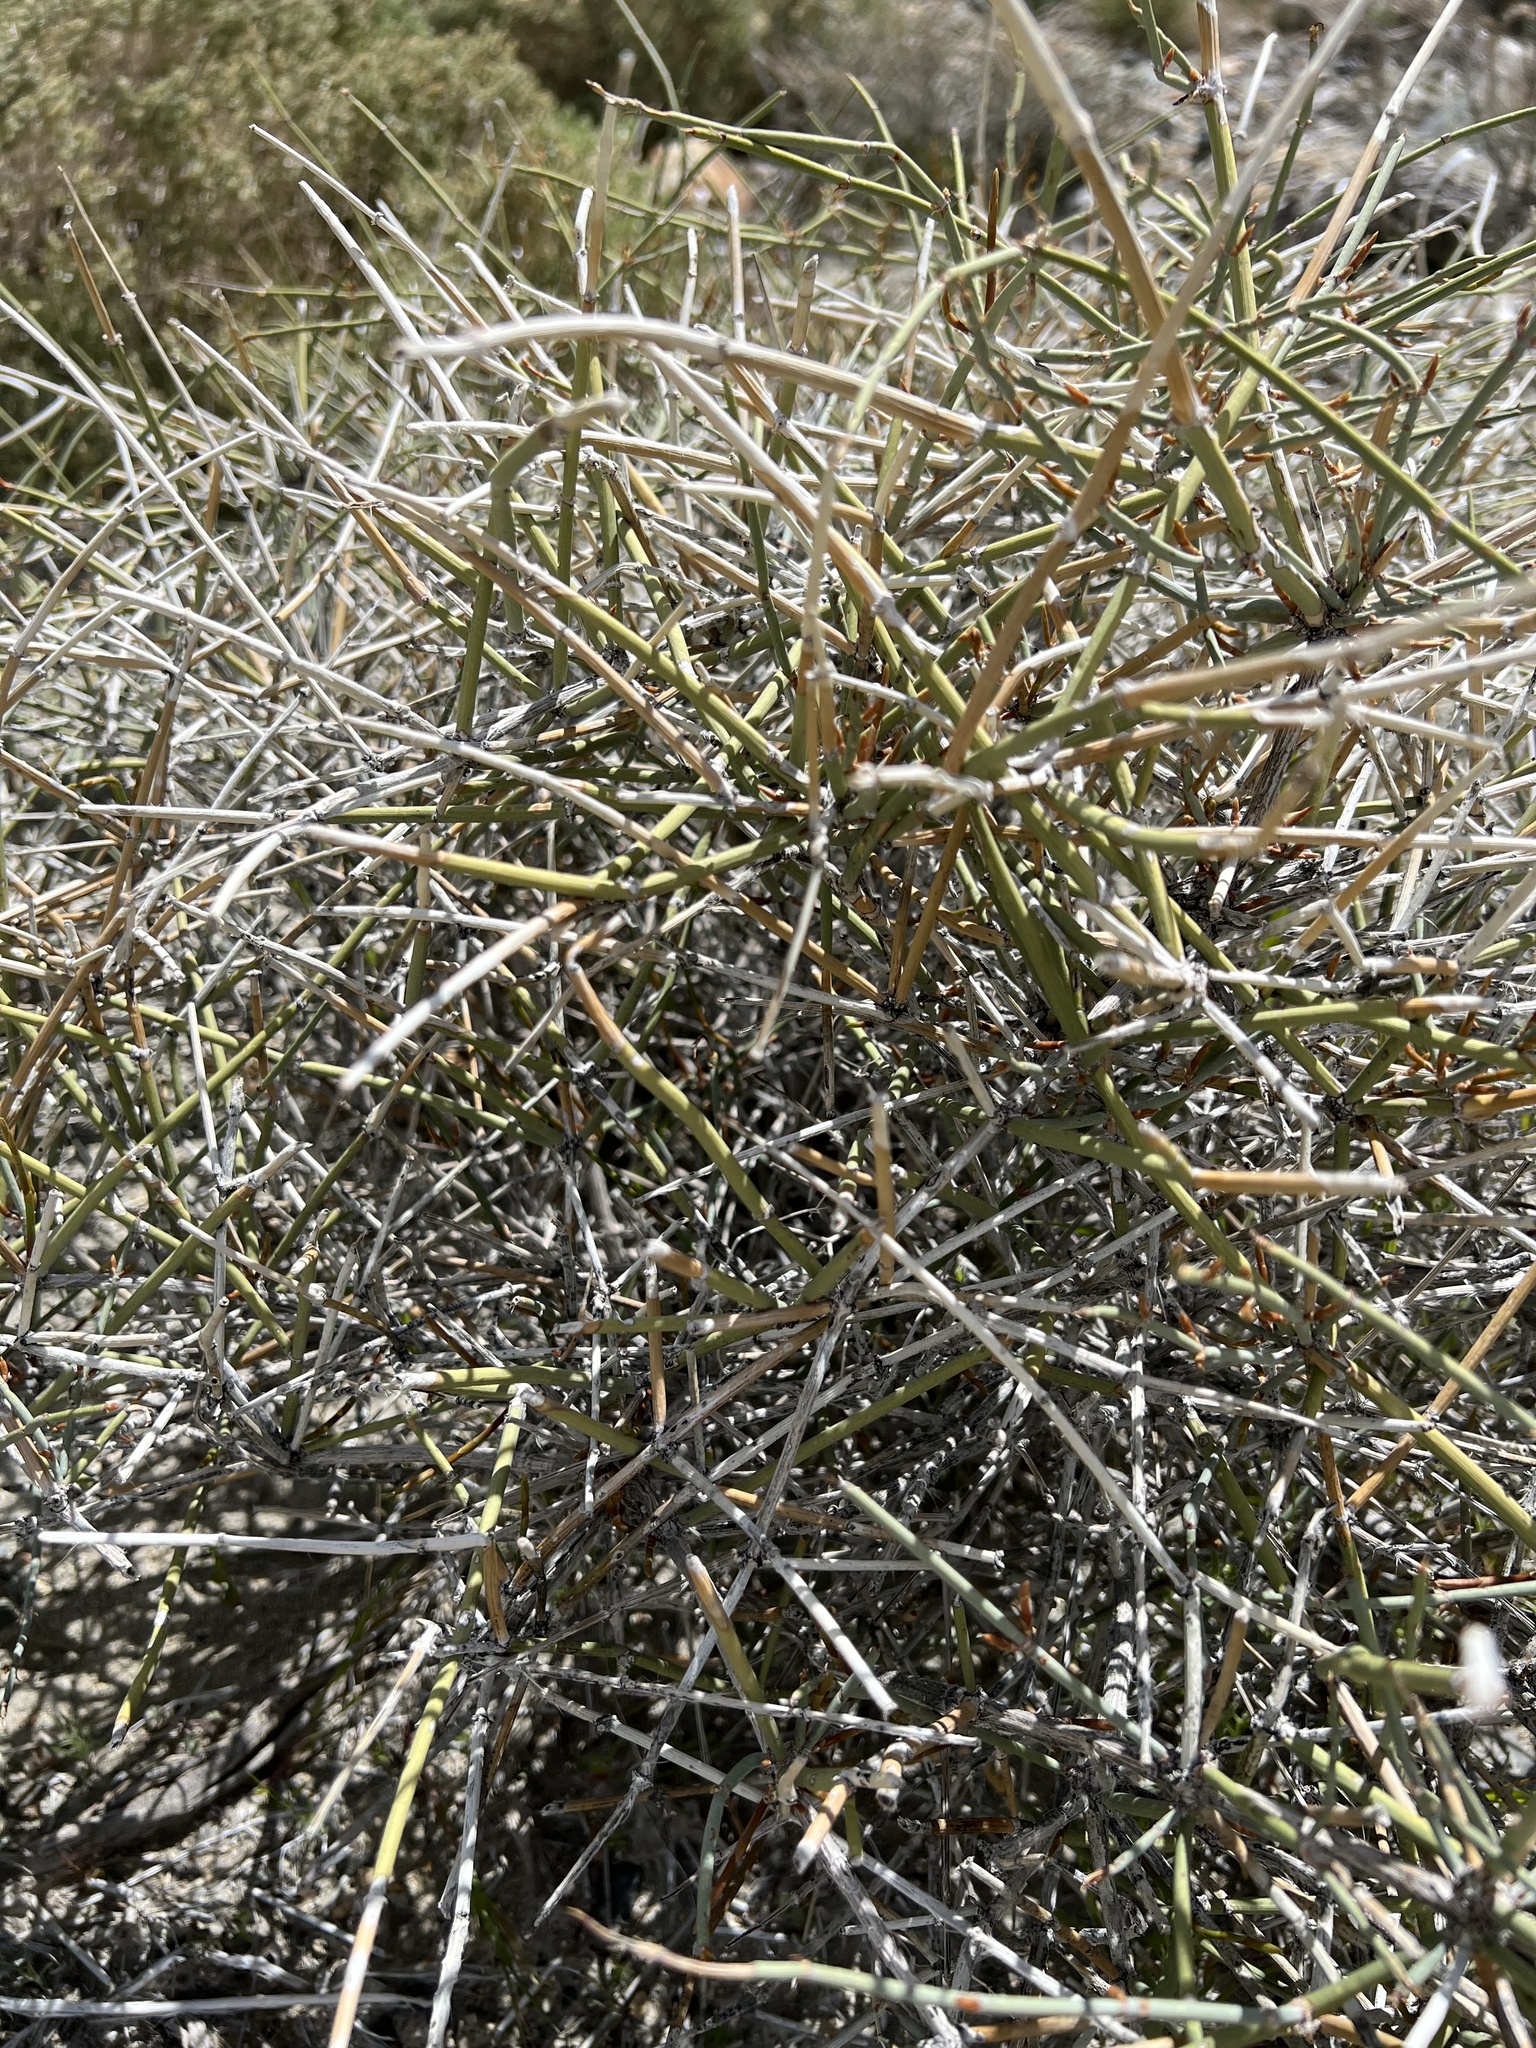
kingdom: Plantae
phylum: Tracheophyta
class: Gnetopsida
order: Ephedrales
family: Ephedraceae
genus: Ephedra
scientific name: Ephedra nevadensis
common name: Gray ephedra
